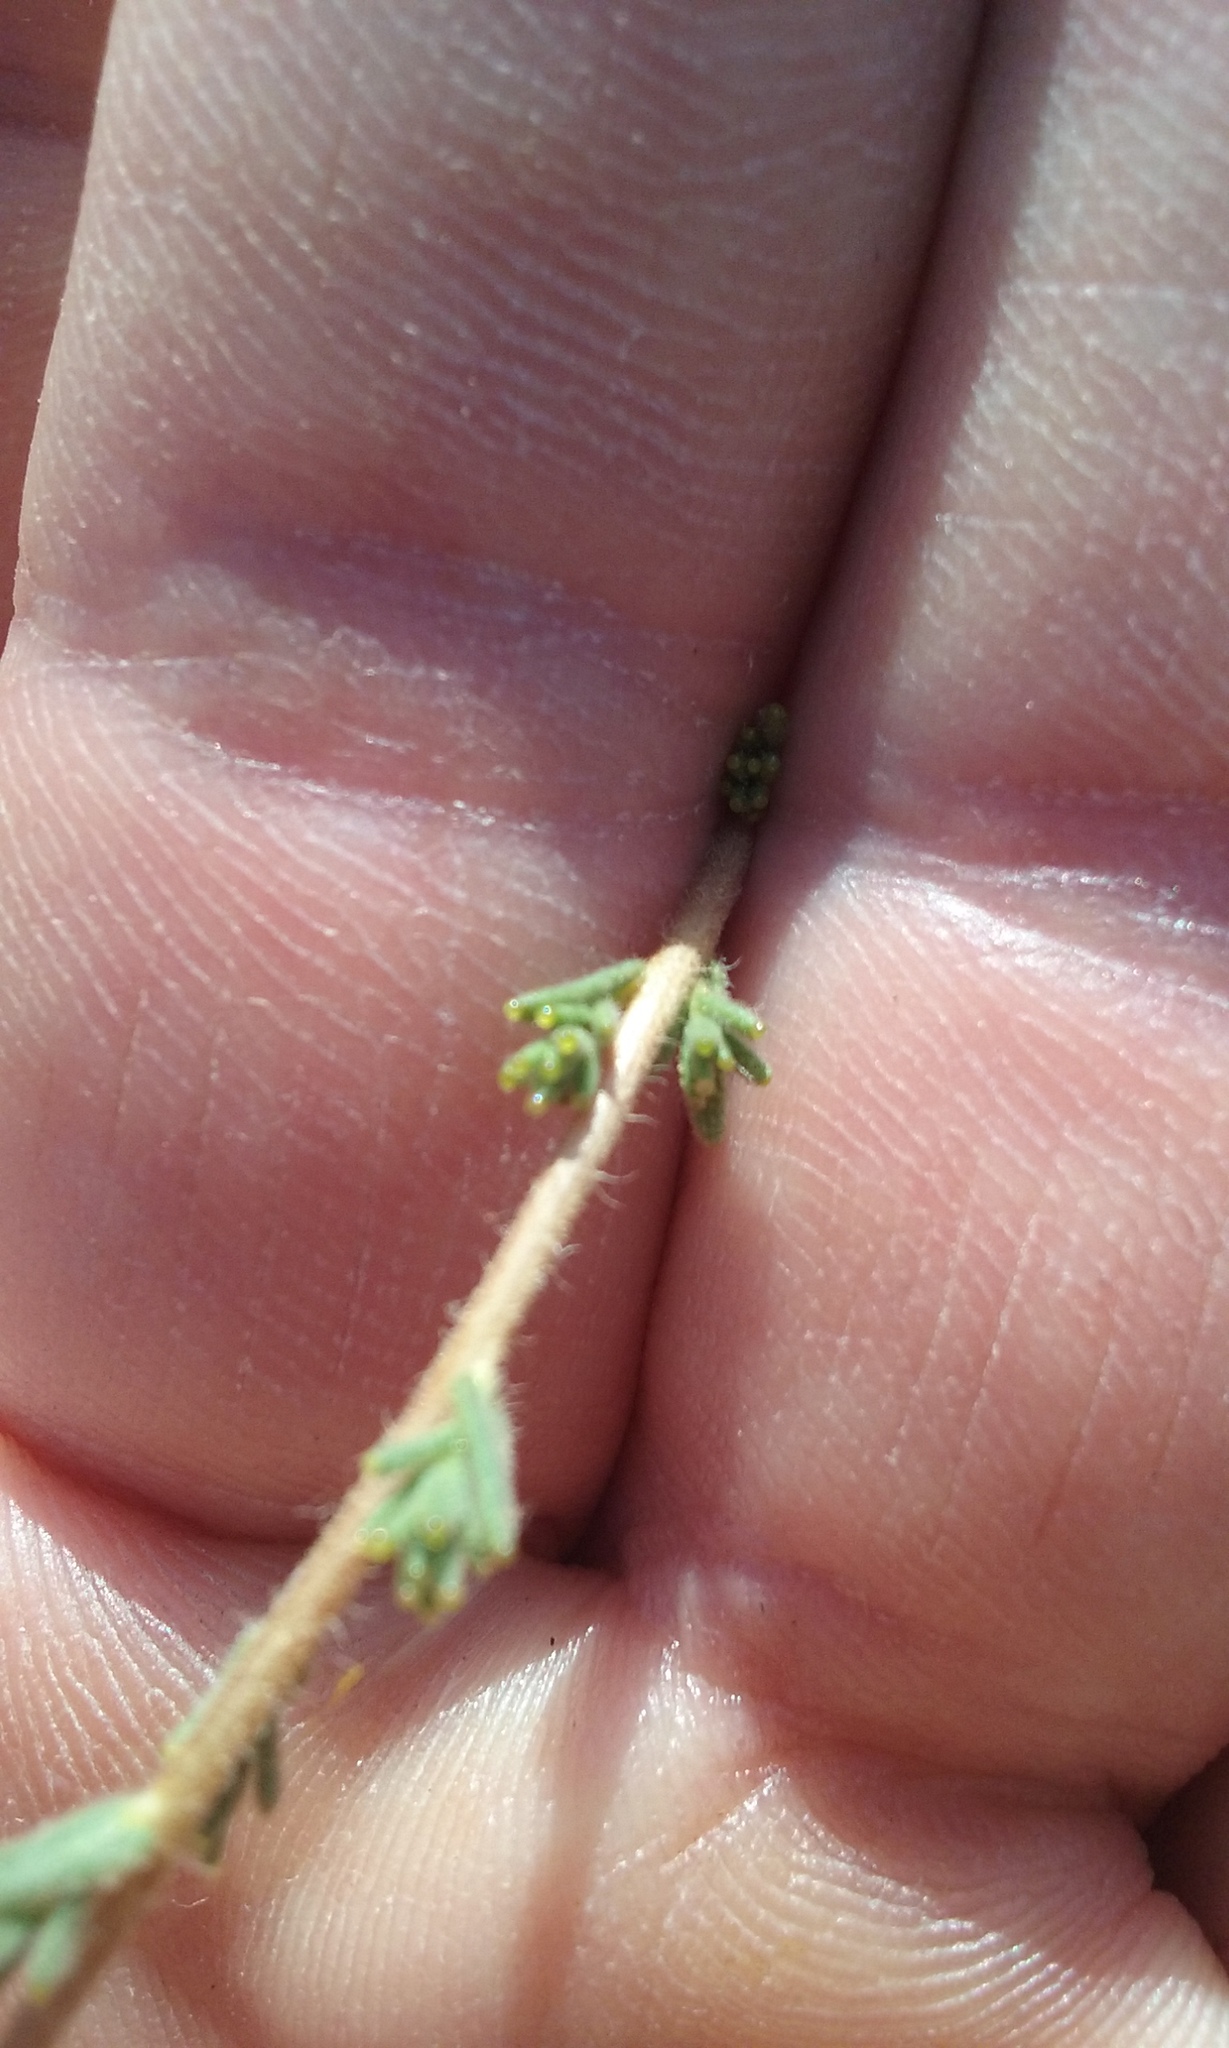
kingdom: Plantae
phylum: Tracheophyta
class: Magnoliopsida
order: Asterales
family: Asteraceae
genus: Holocarpha
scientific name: Holocarpha heermannii
